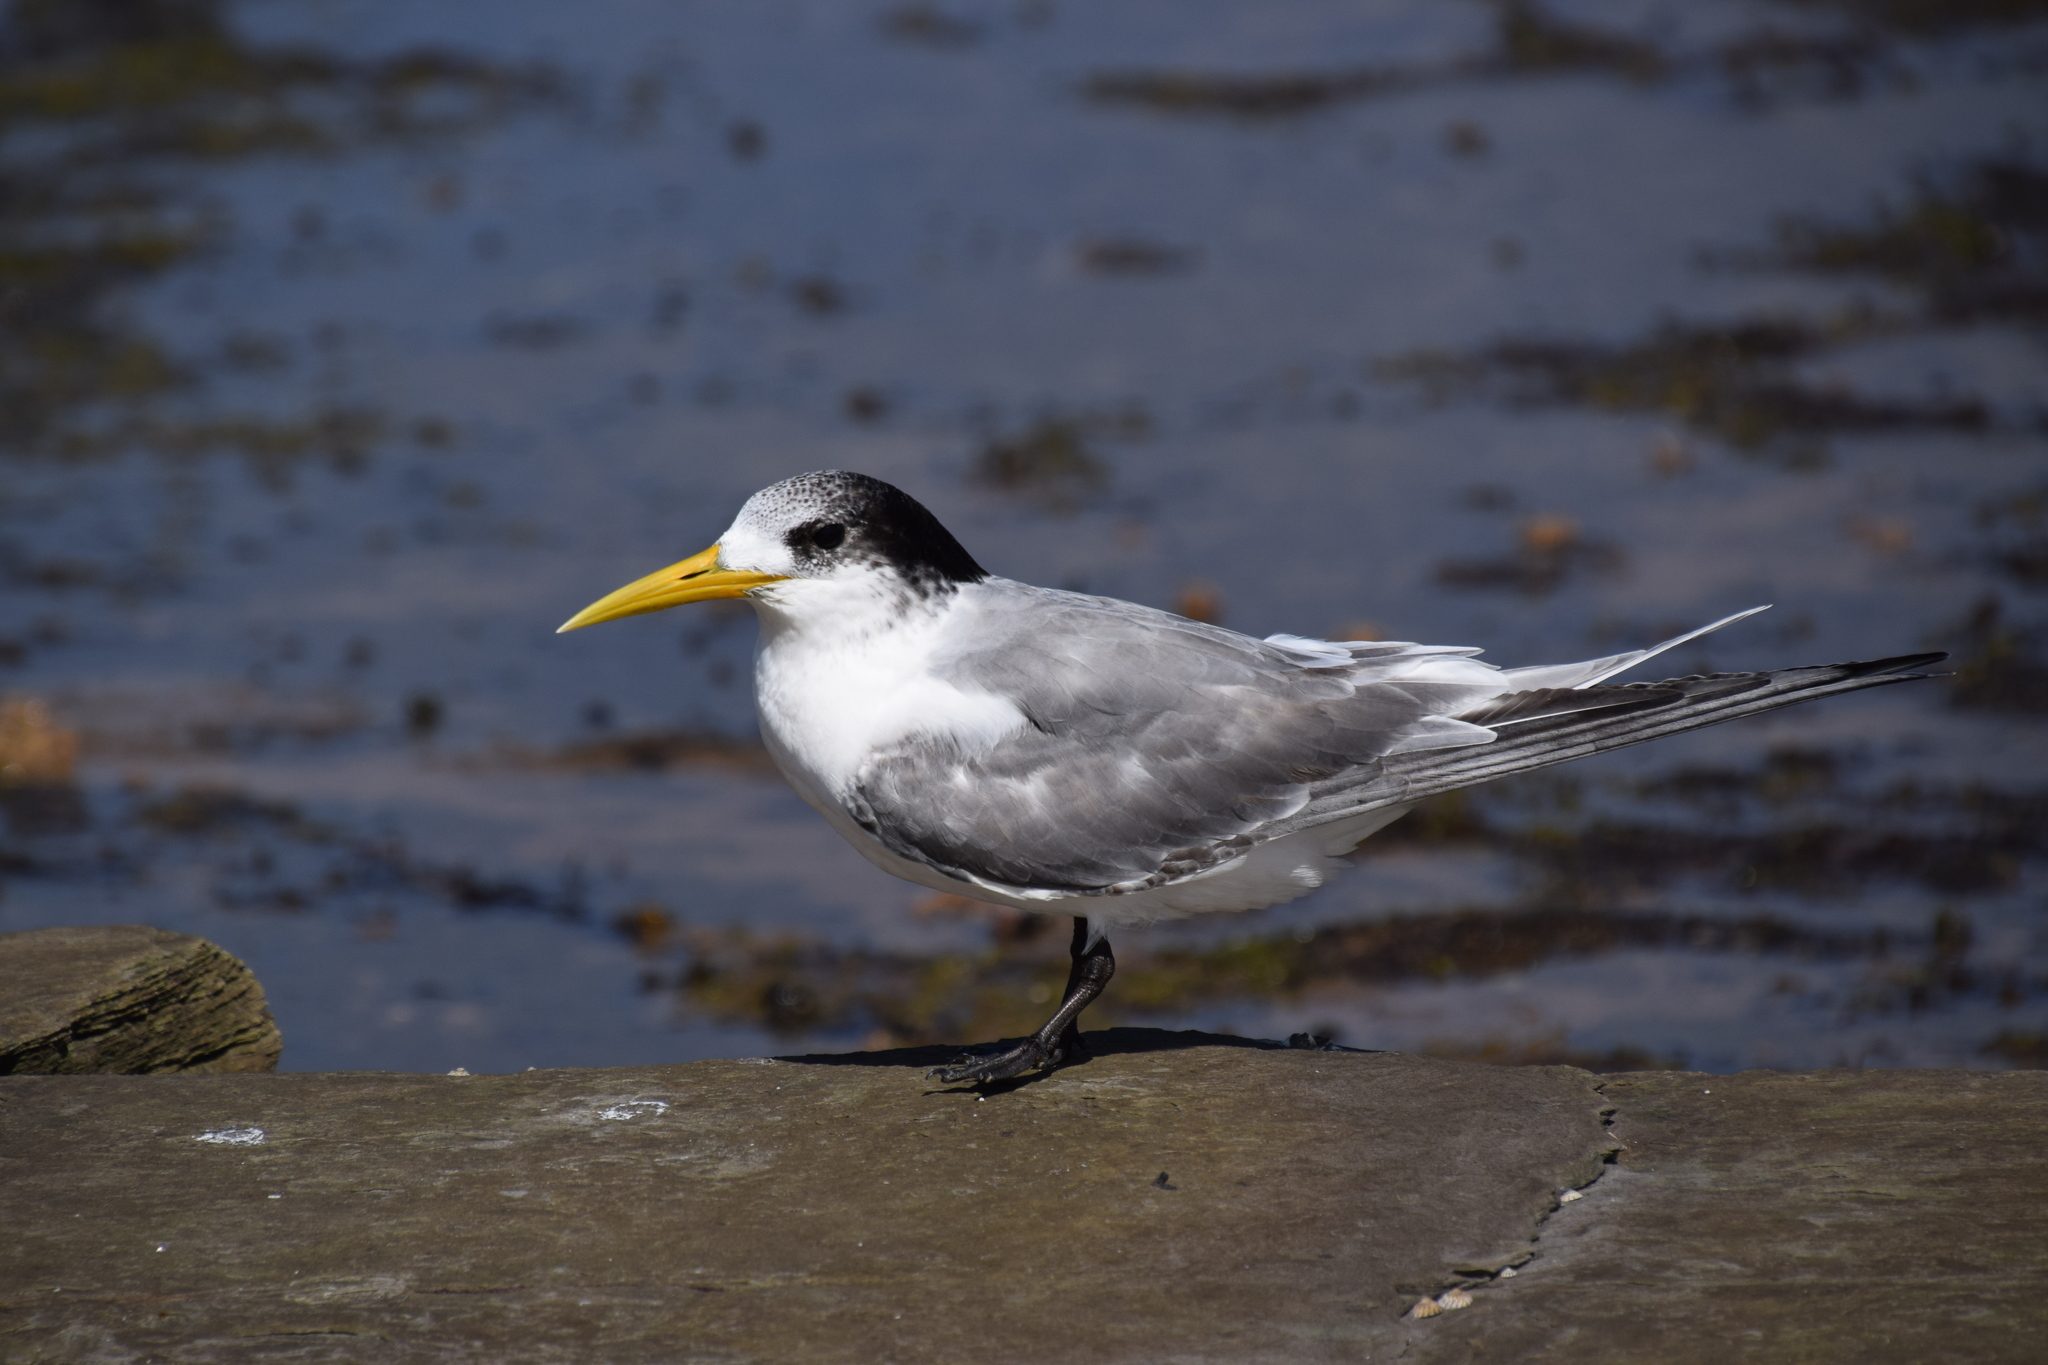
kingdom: Animalia
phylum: Chordata
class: Aves
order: Charadriiformes
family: Laridae
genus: Thalasseus
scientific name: Thalasseus bergii
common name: Greater crested tern
